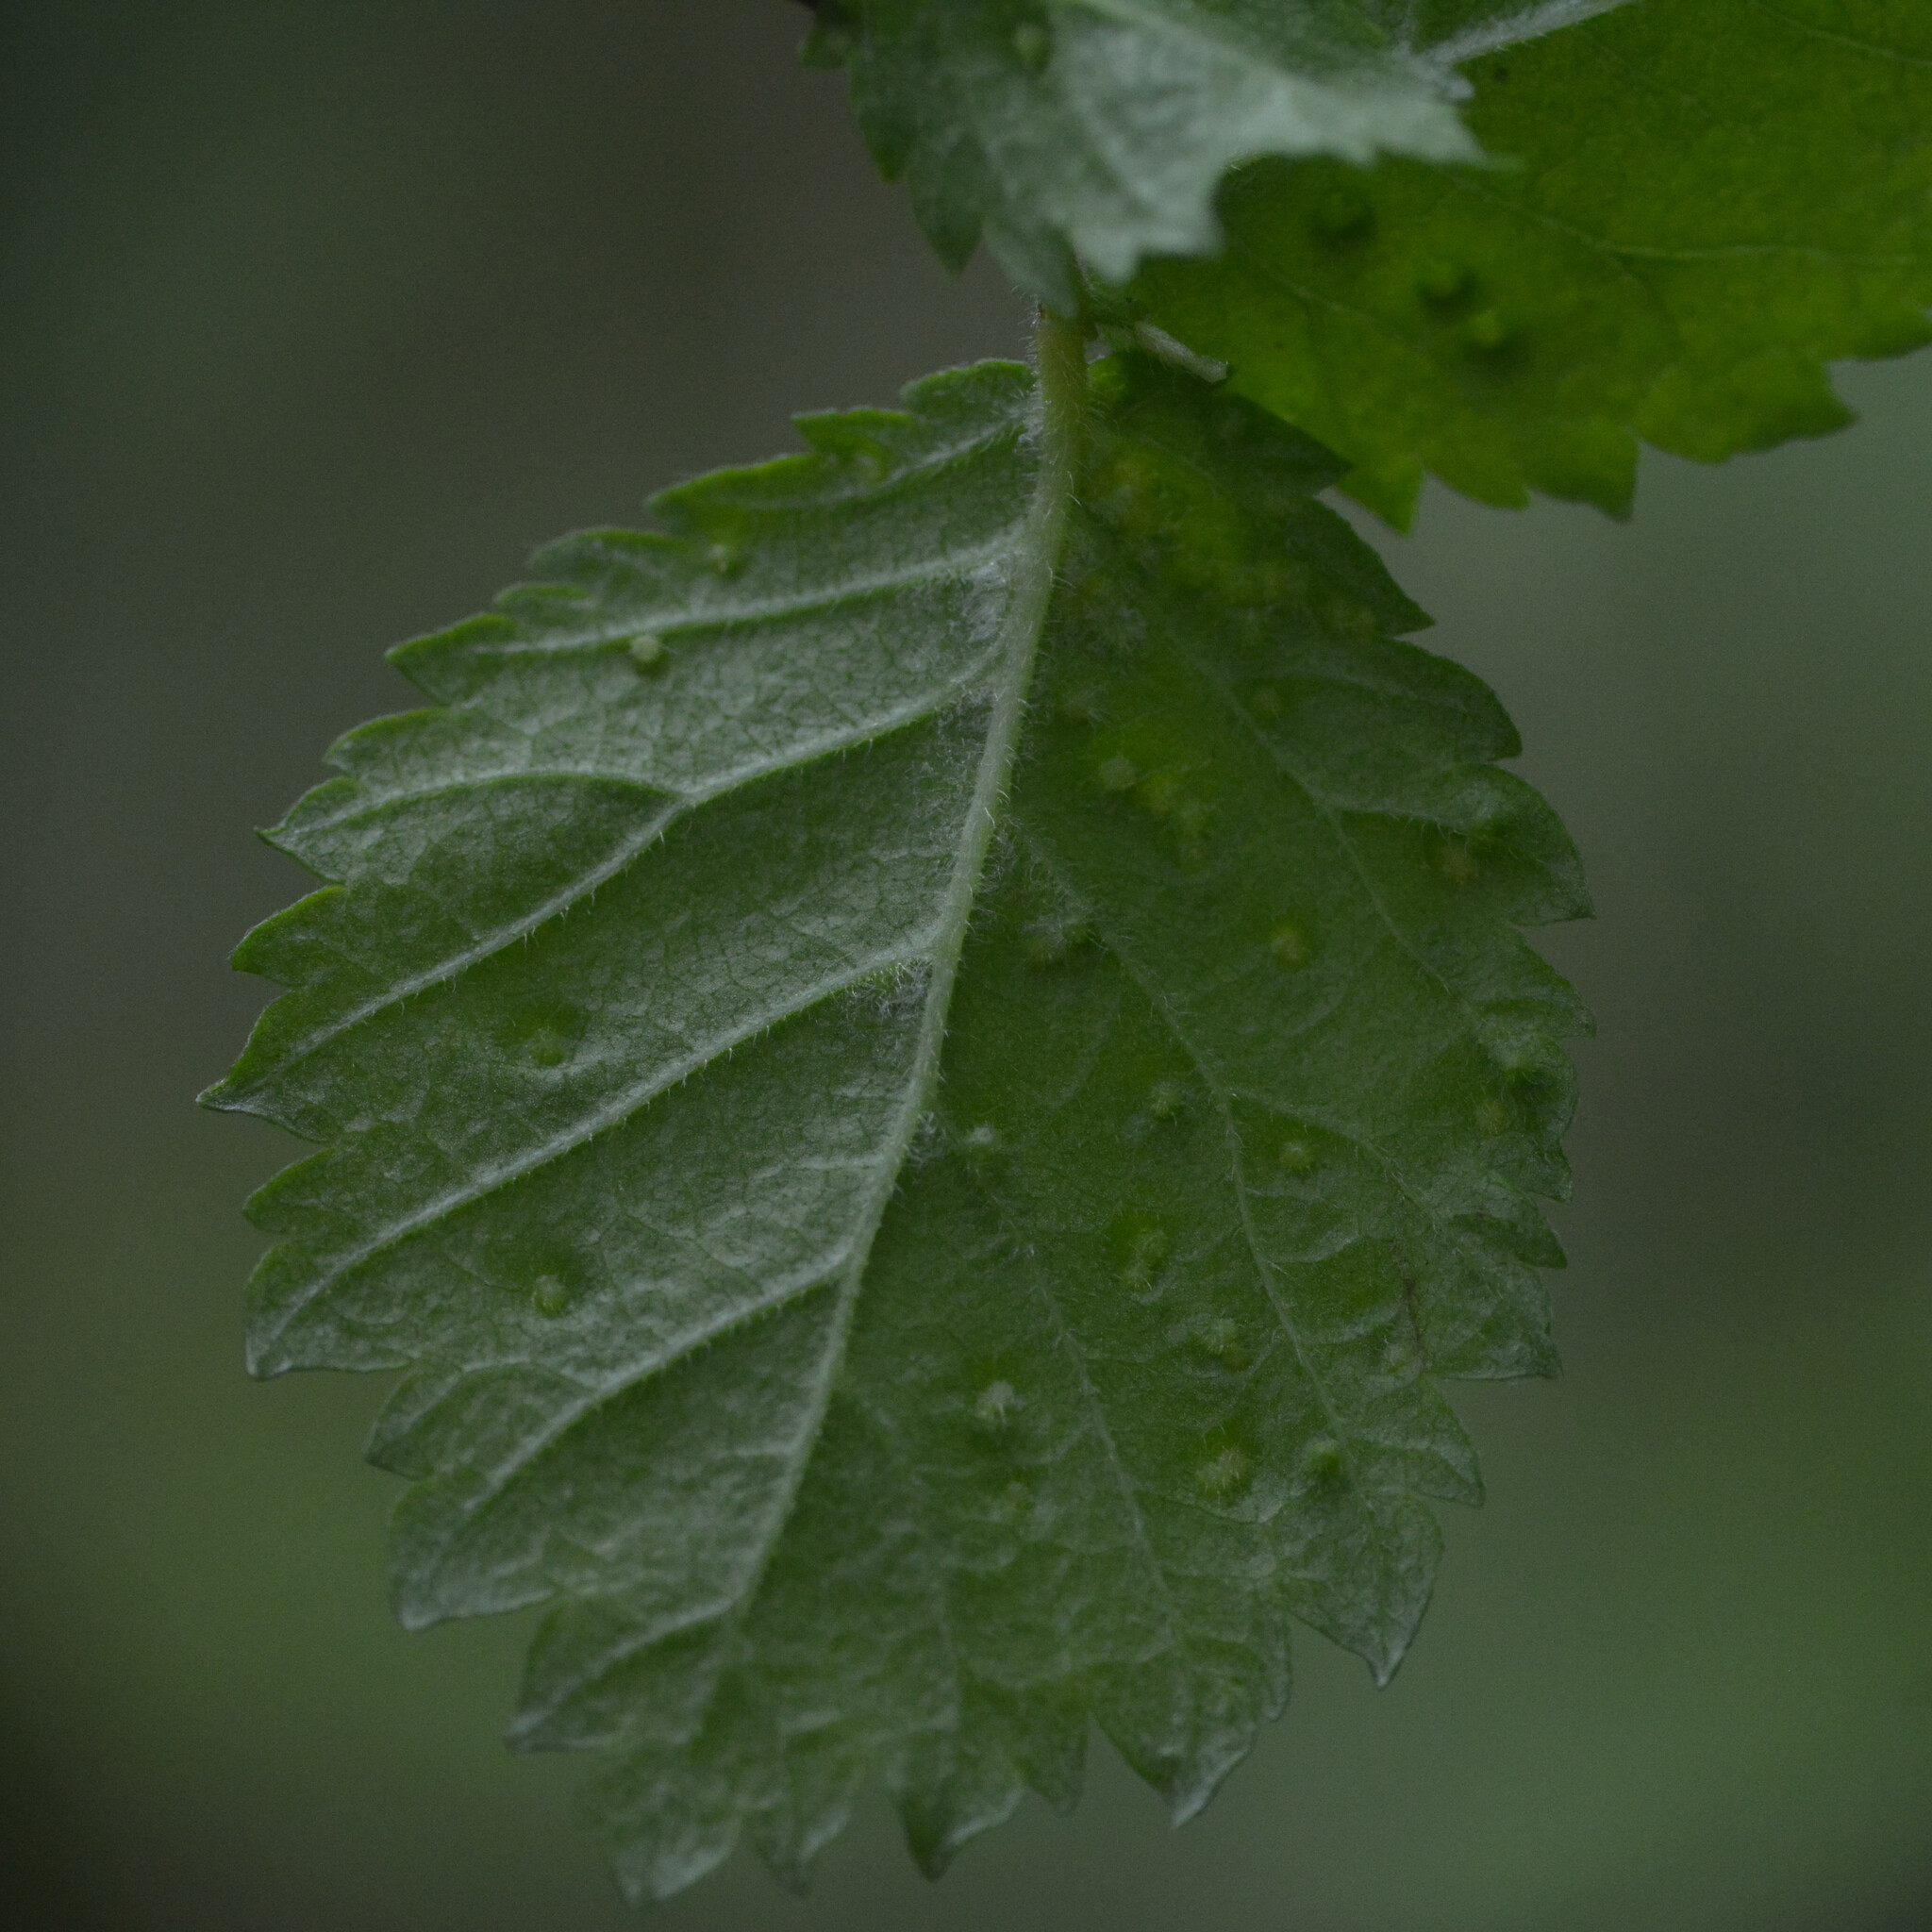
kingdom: Animalia
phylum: Arthropoda
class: Arachnida
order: Trombidiformes
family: Eriophyidae
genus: Aceria
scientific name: Aceria brevipunctata
